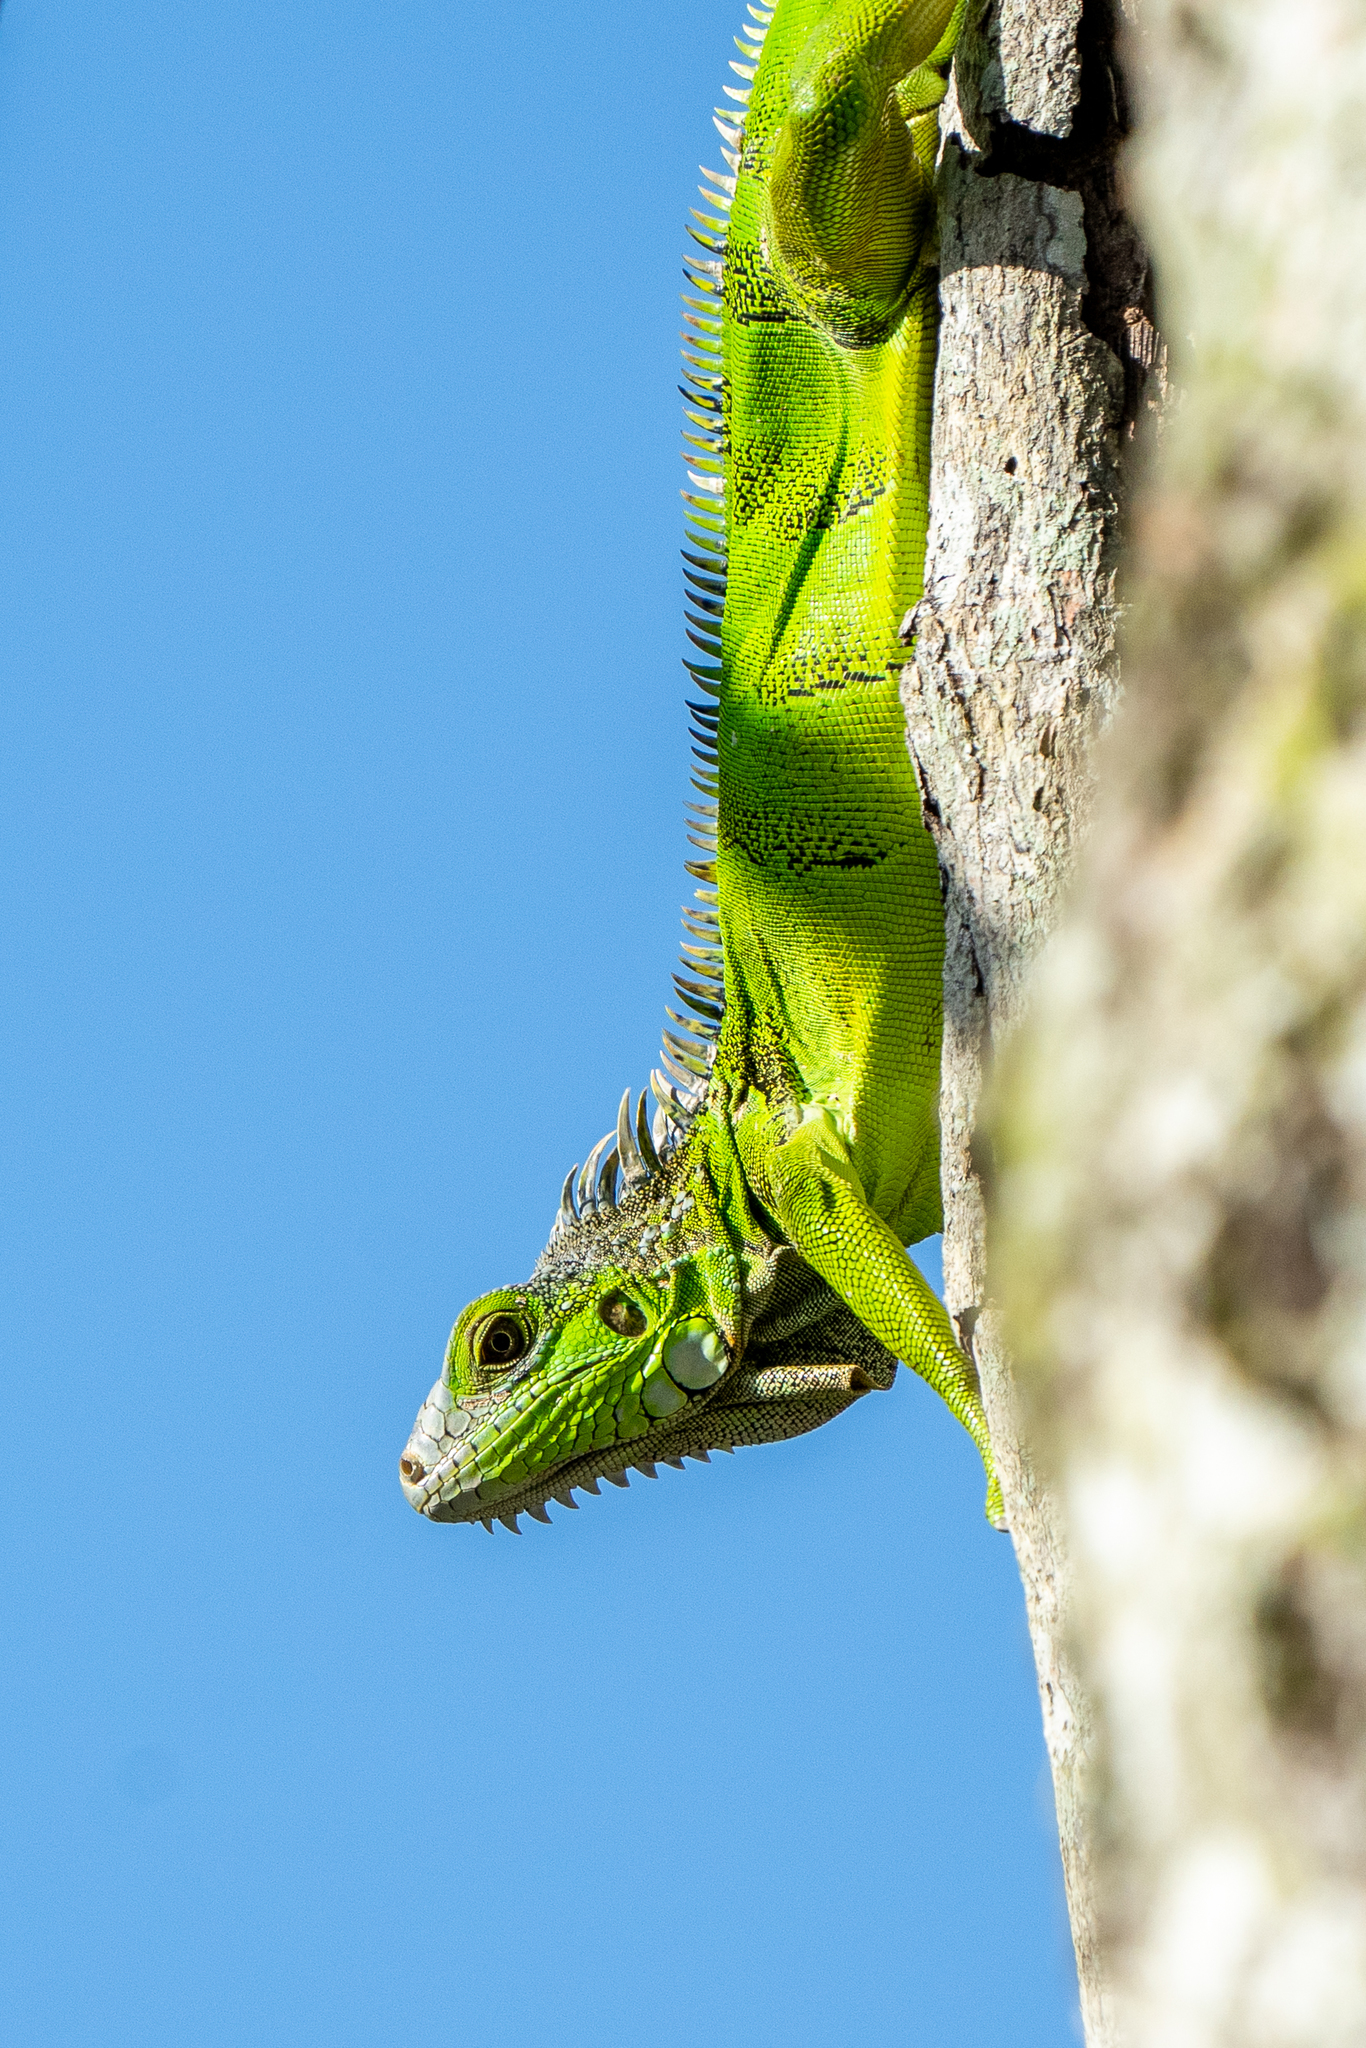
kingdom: Animalia
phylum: Chordata
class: Squamata
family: Iguanidae
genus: Iguana
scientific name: Iguana iguana
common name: Green iguana
